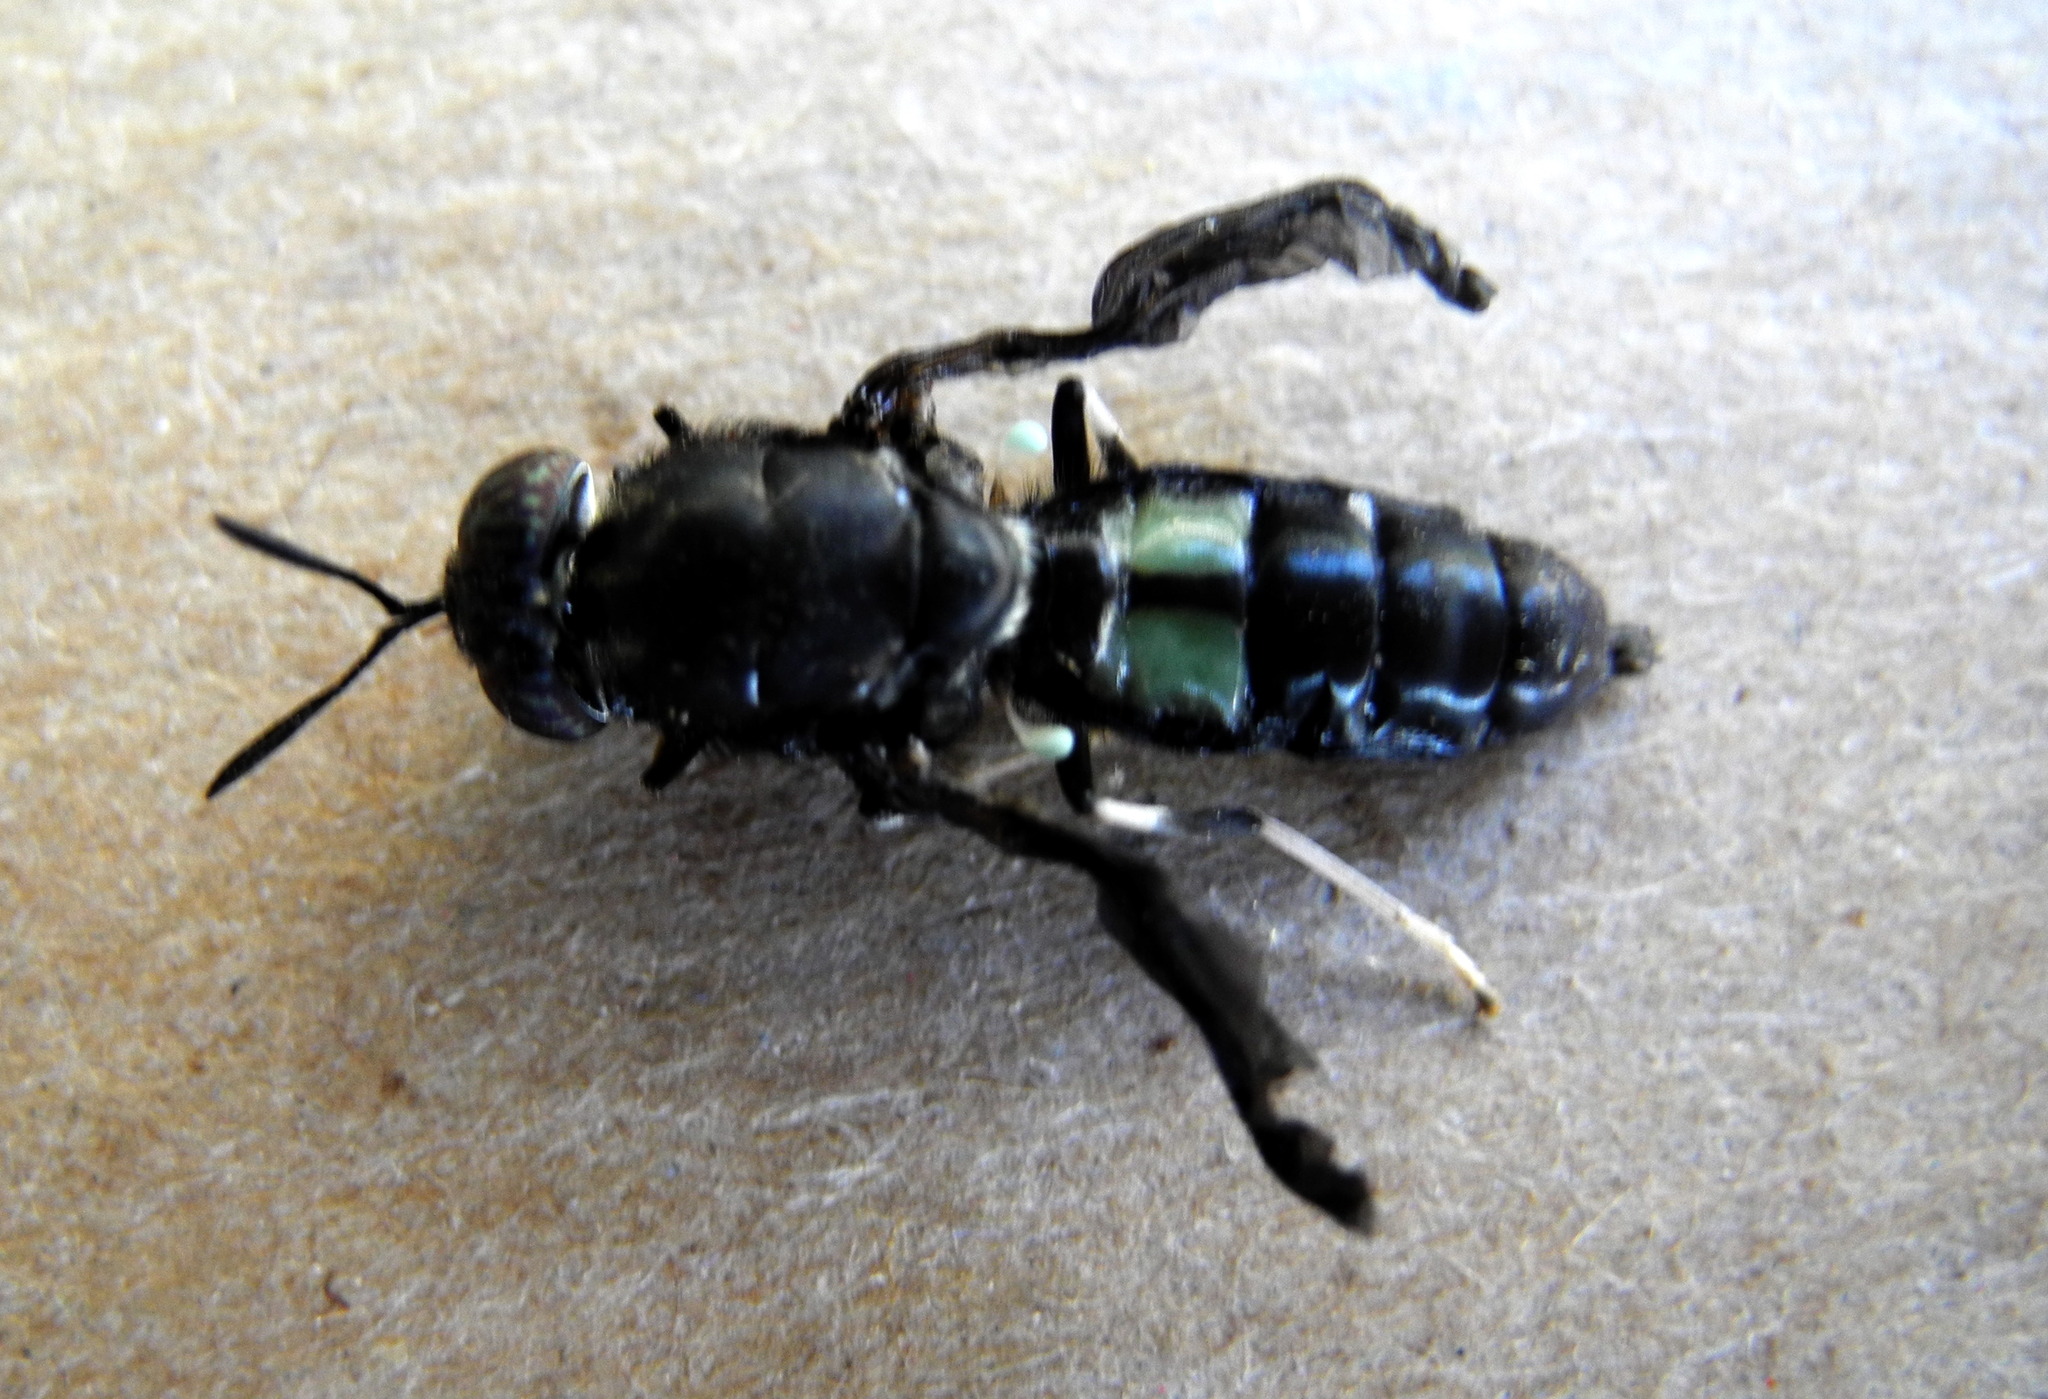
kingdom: Animalia
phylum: Arthropoda
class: Insecta
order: Diptera
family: Stratiomyidae
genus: Hermetia
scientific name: Hermetia illucens
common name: Black soldier fly
